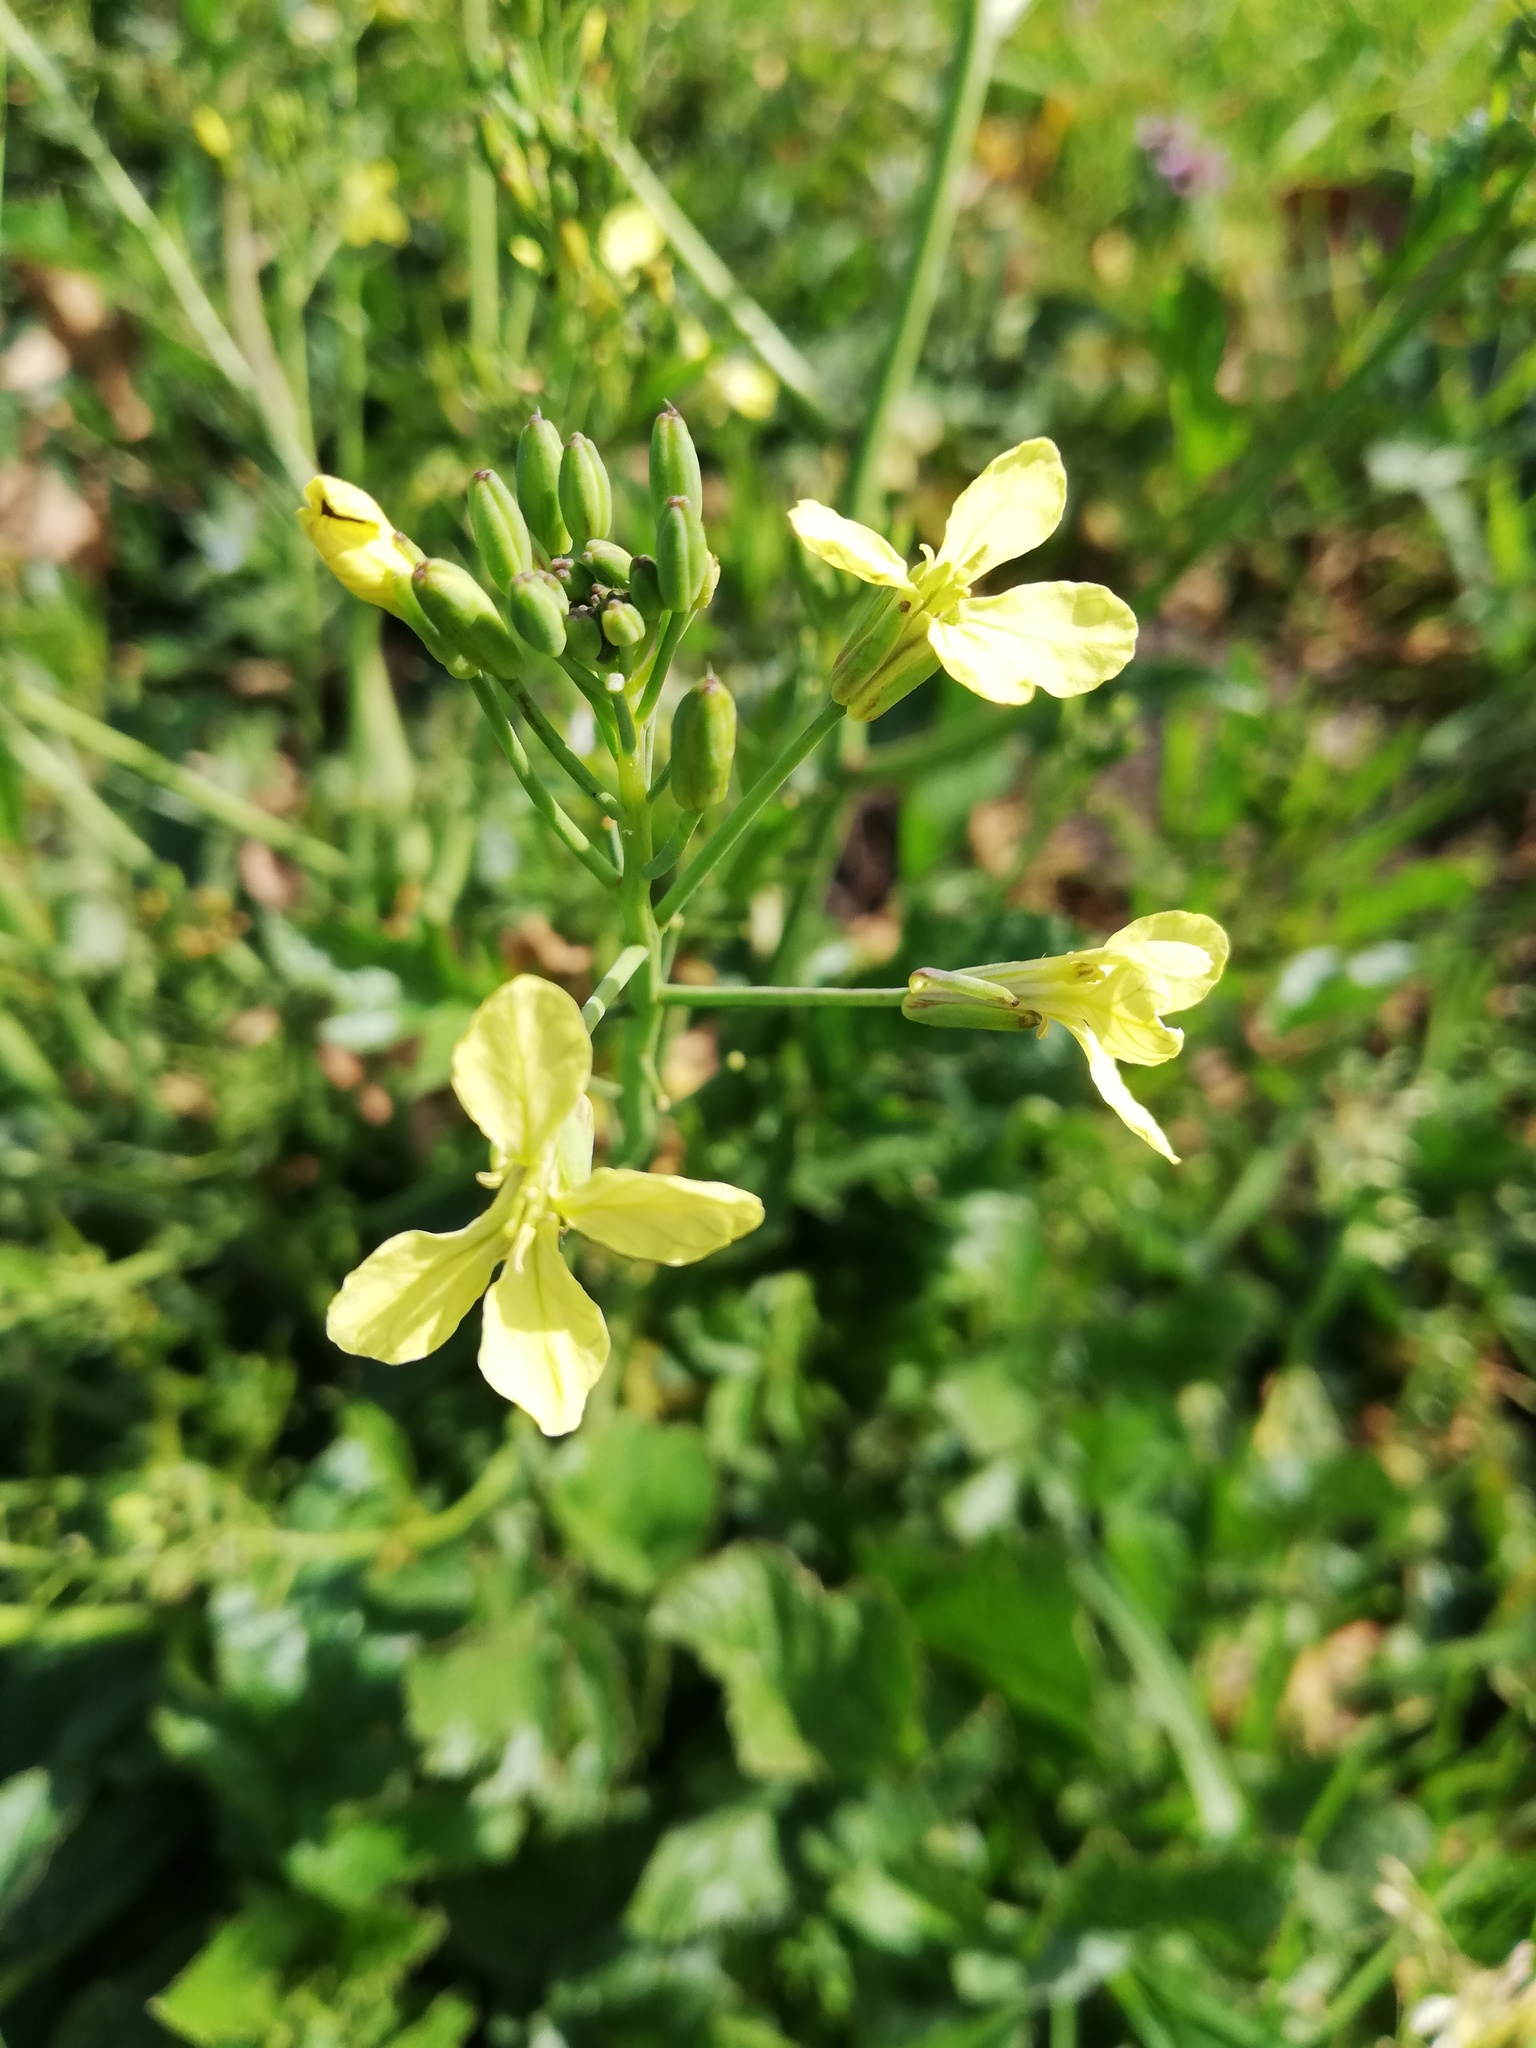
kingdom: Plantae
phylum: Tracheophyta
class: Magnoliopsida
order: Brassicales
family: Brassicaceae
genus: Raphanus
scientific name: Raphanus raphanistrum
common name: Wild radish
